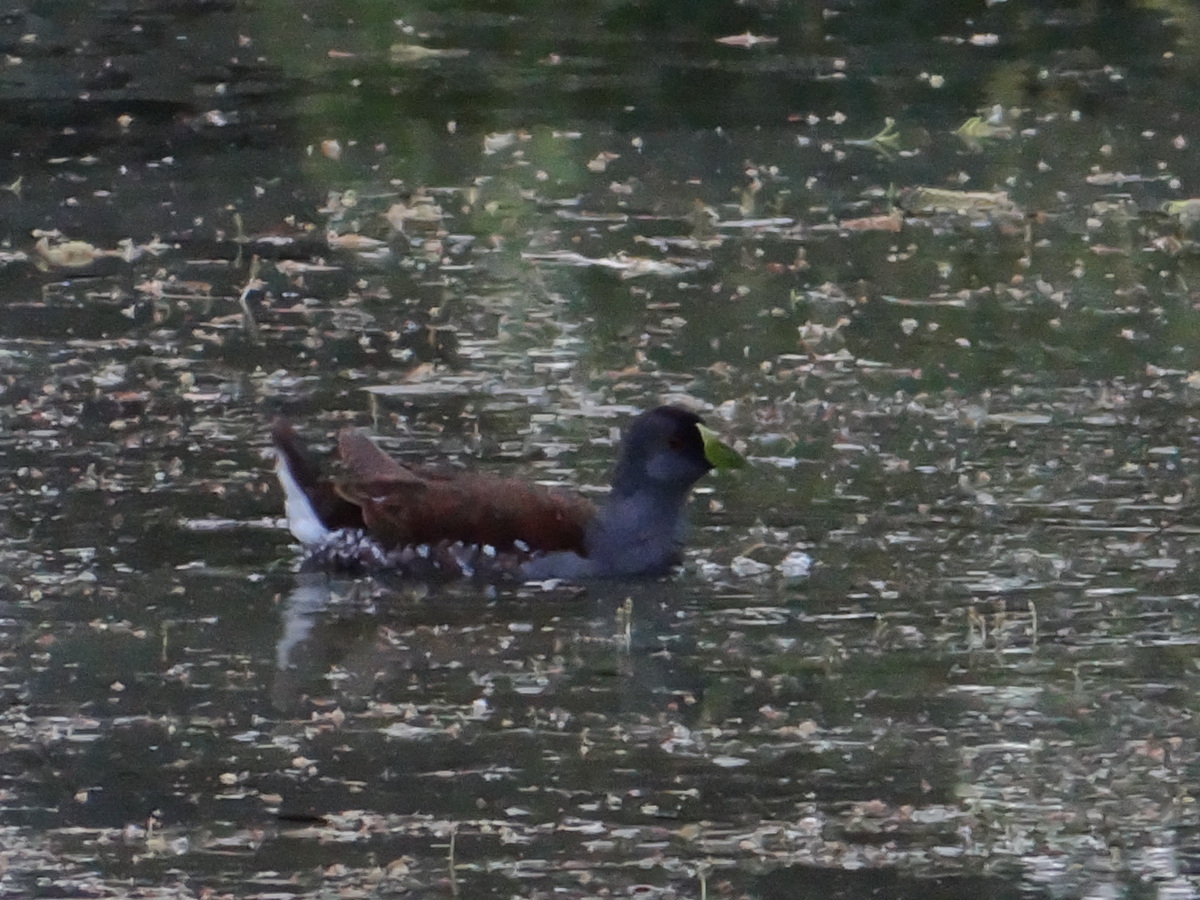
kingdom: Animalia
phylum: Chordata
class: Aves
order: Gruiformes
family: Rallidae
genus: Gallinula
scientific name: Gallinula melanops
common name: Spot-flanked gallinule
